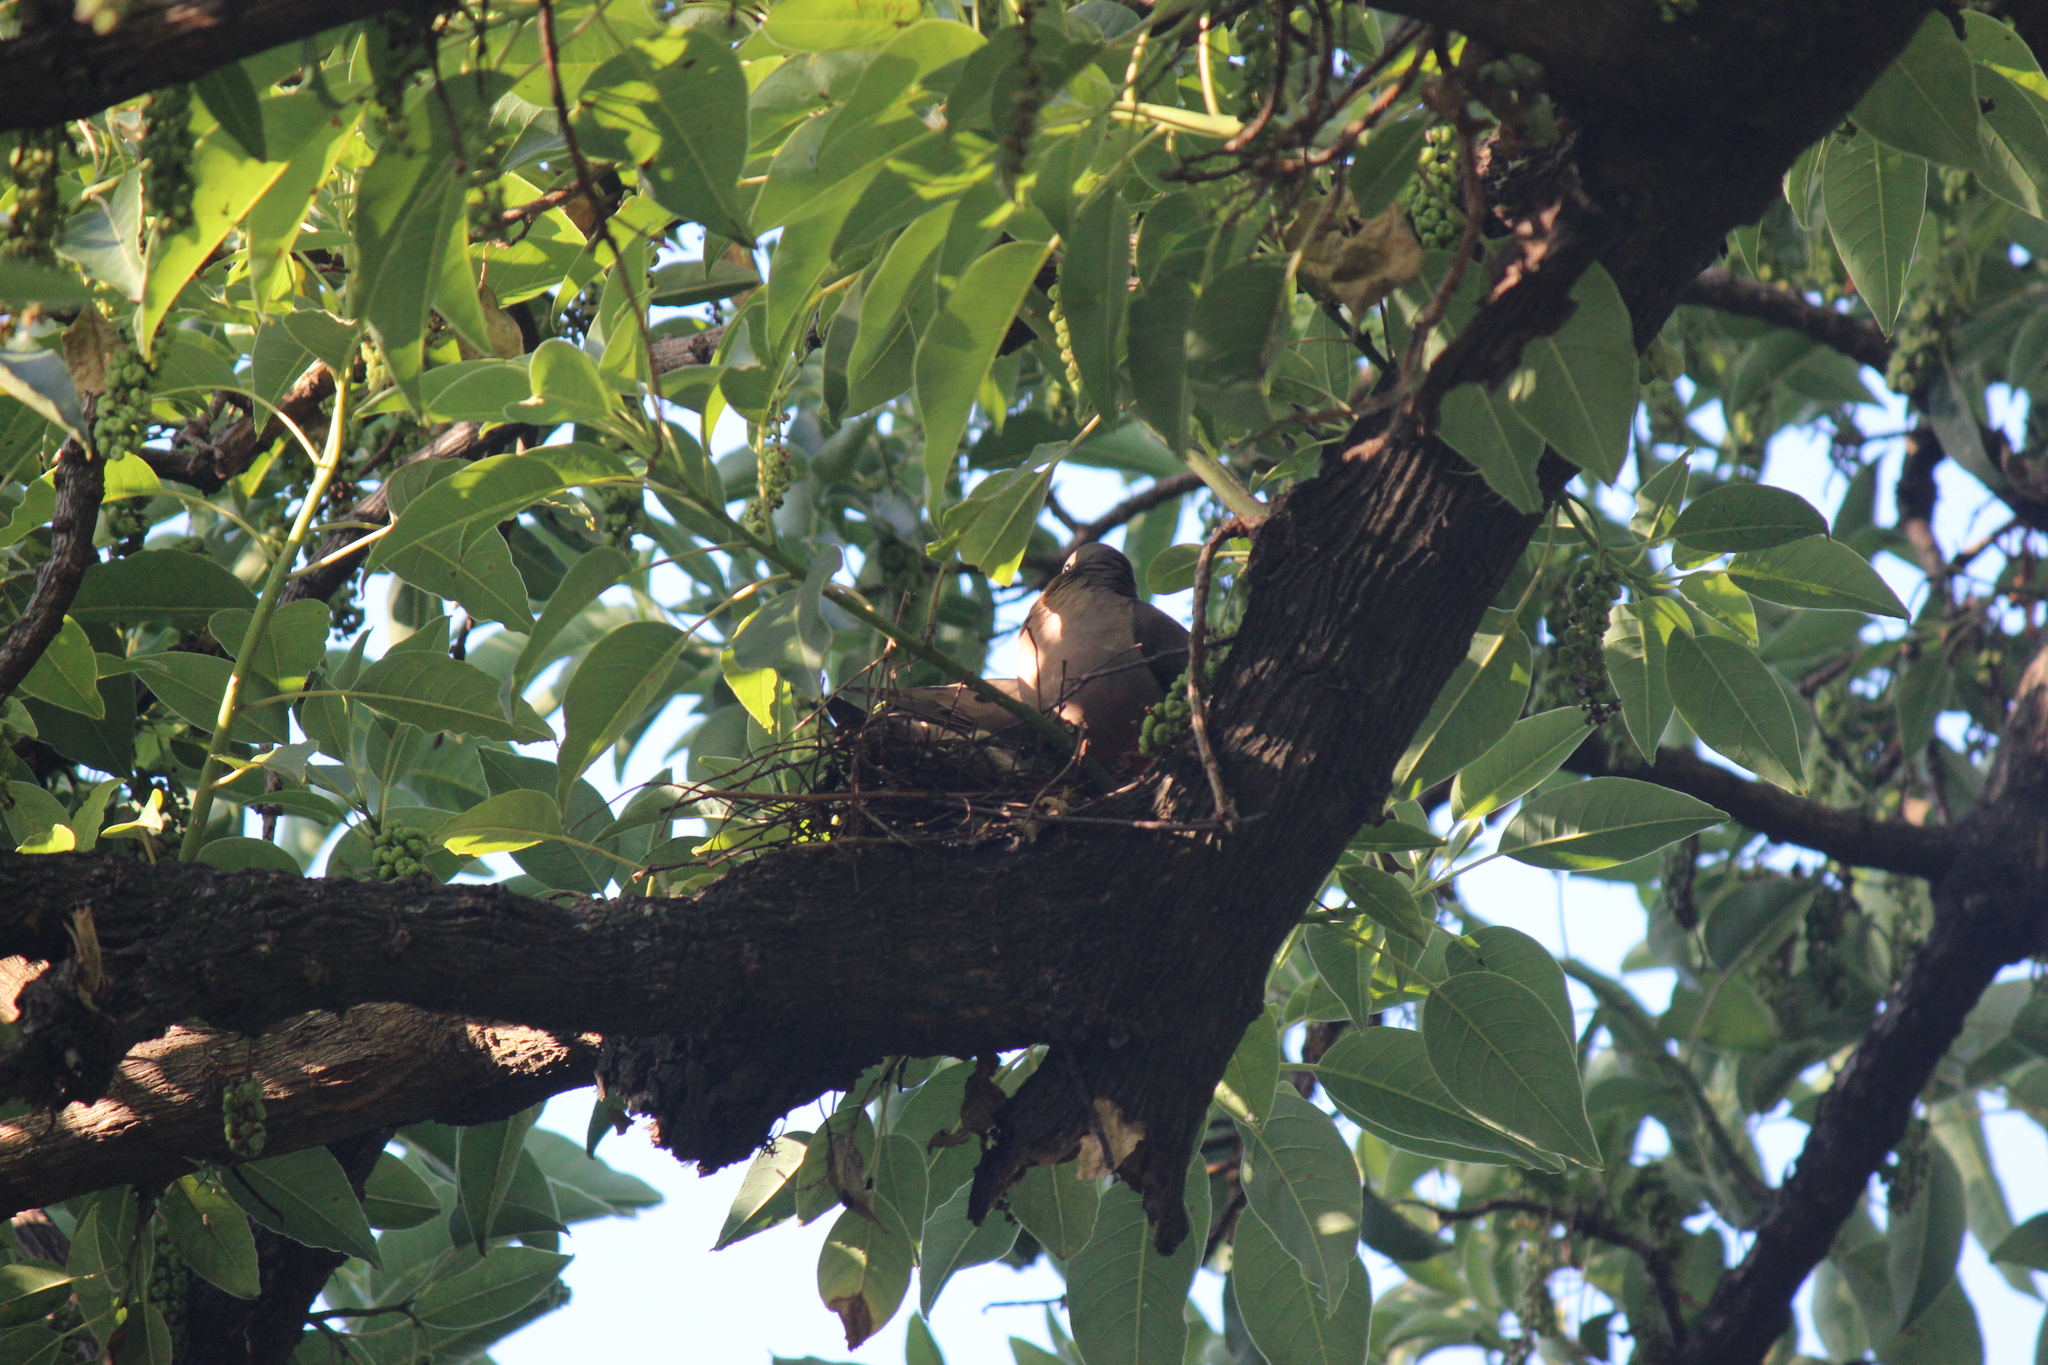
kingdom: Animalia
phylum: Chordata
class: Aves
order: Columbiformes
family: Columbidae
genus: Zenaida
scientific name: Zenaida auriculata
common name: Eared dove
